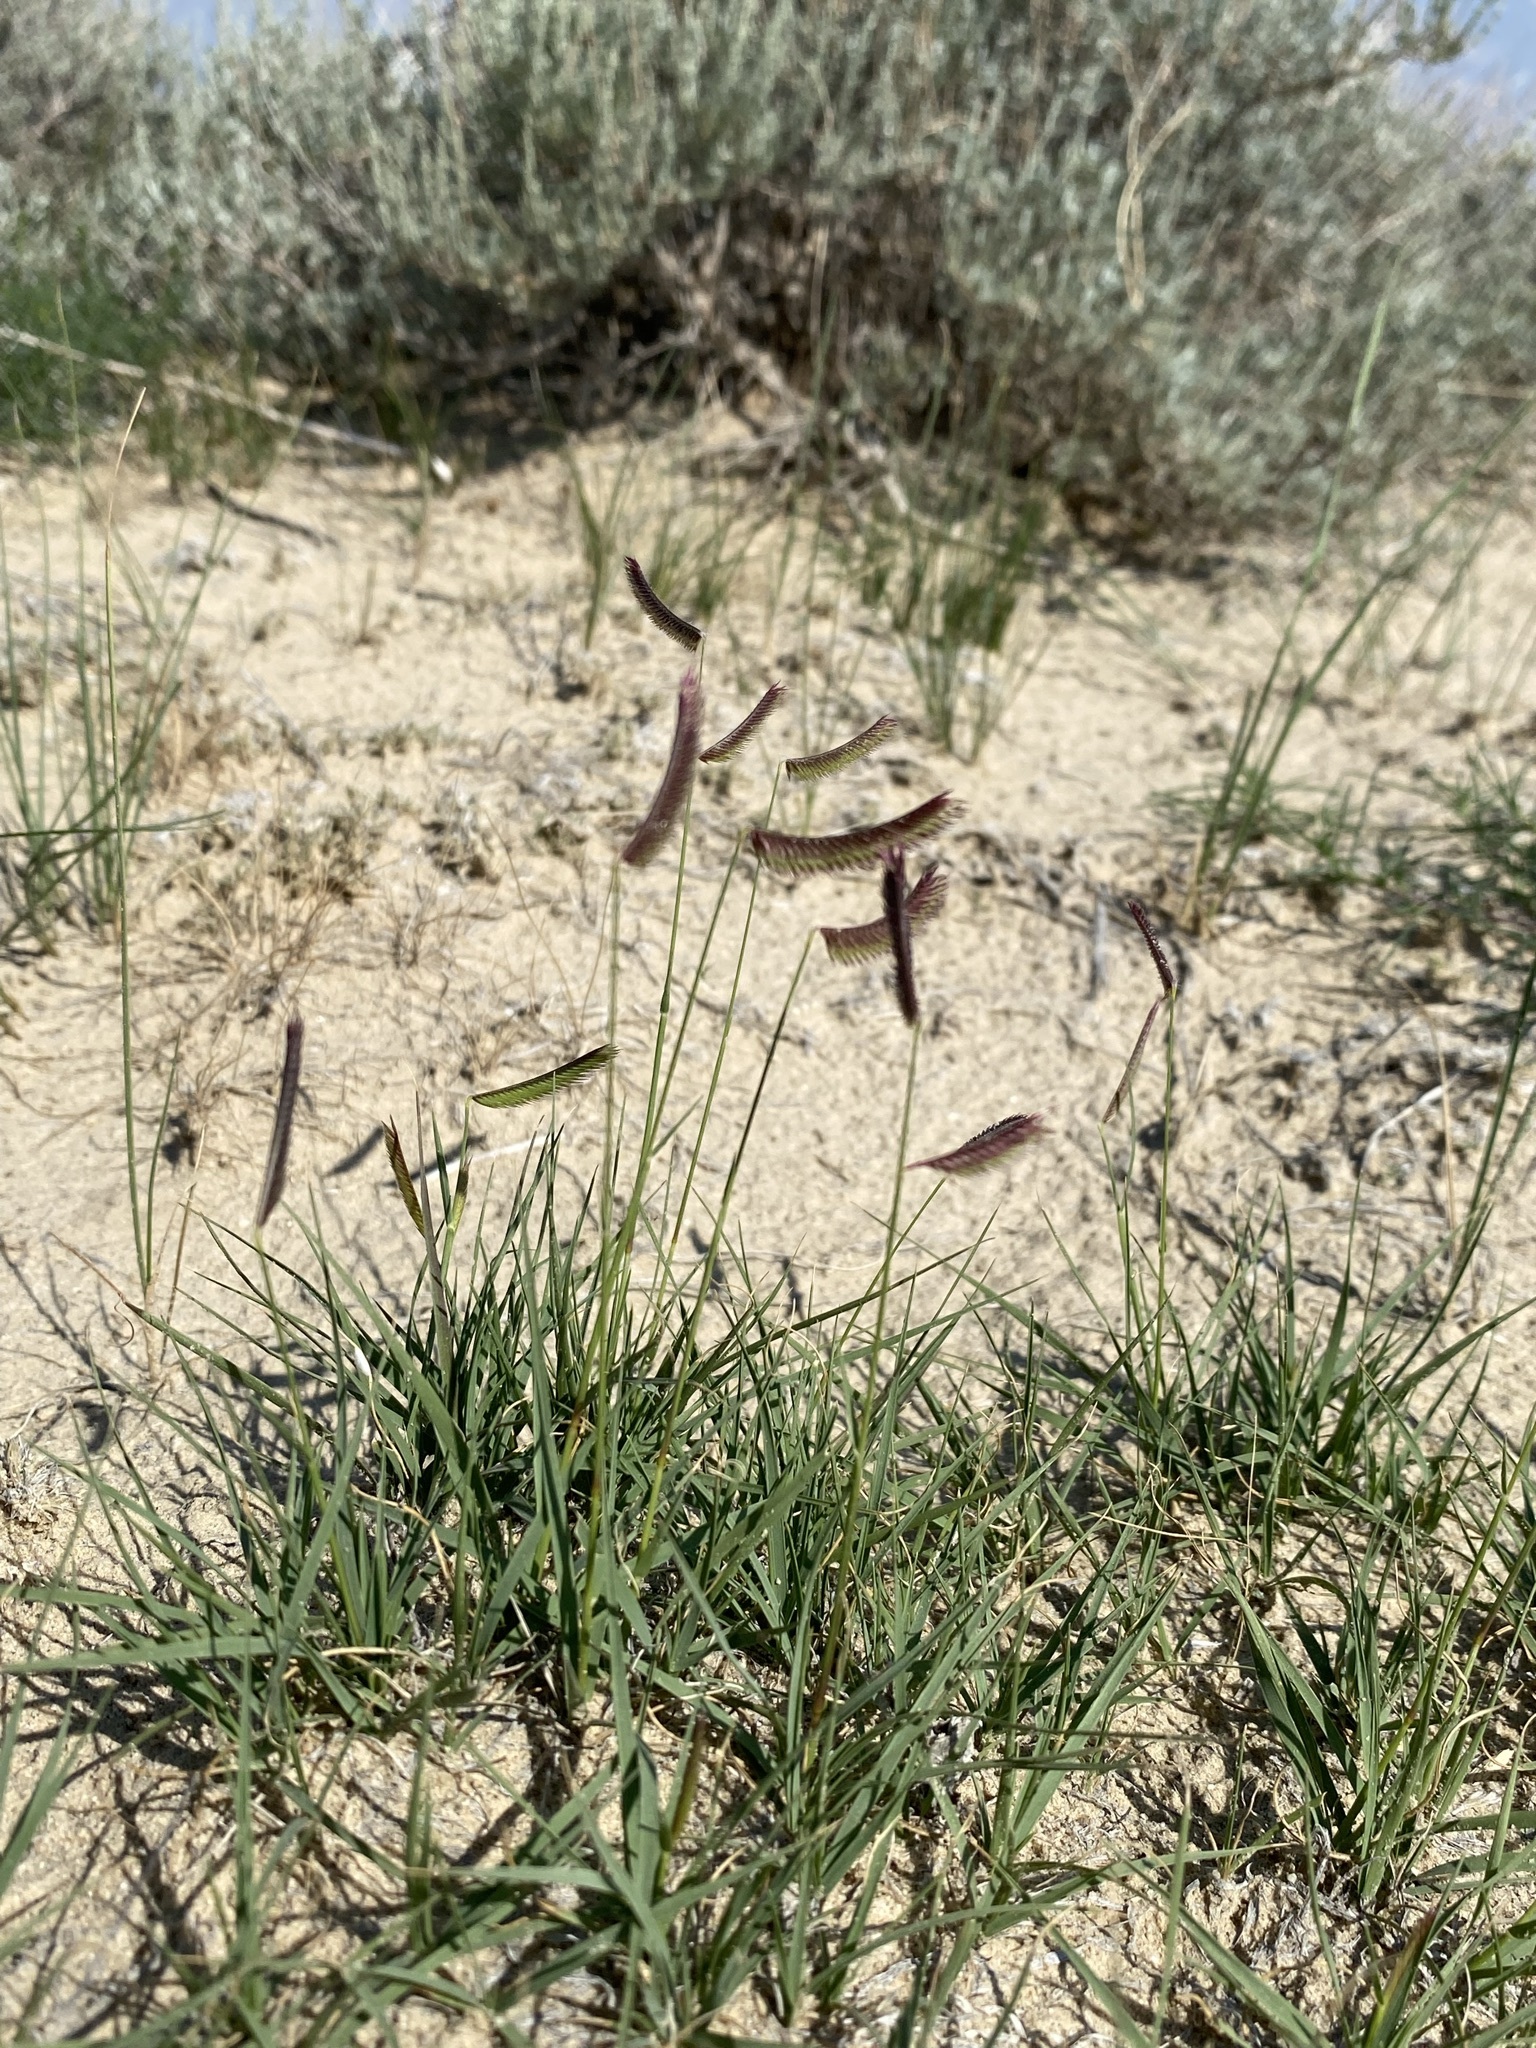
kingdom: Plantae
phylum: Tracheophyta
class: Liliopsida
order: Poales
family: Poaceae
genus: Bouteloua
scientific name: Bouteloua gracilis
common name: Blue grama
